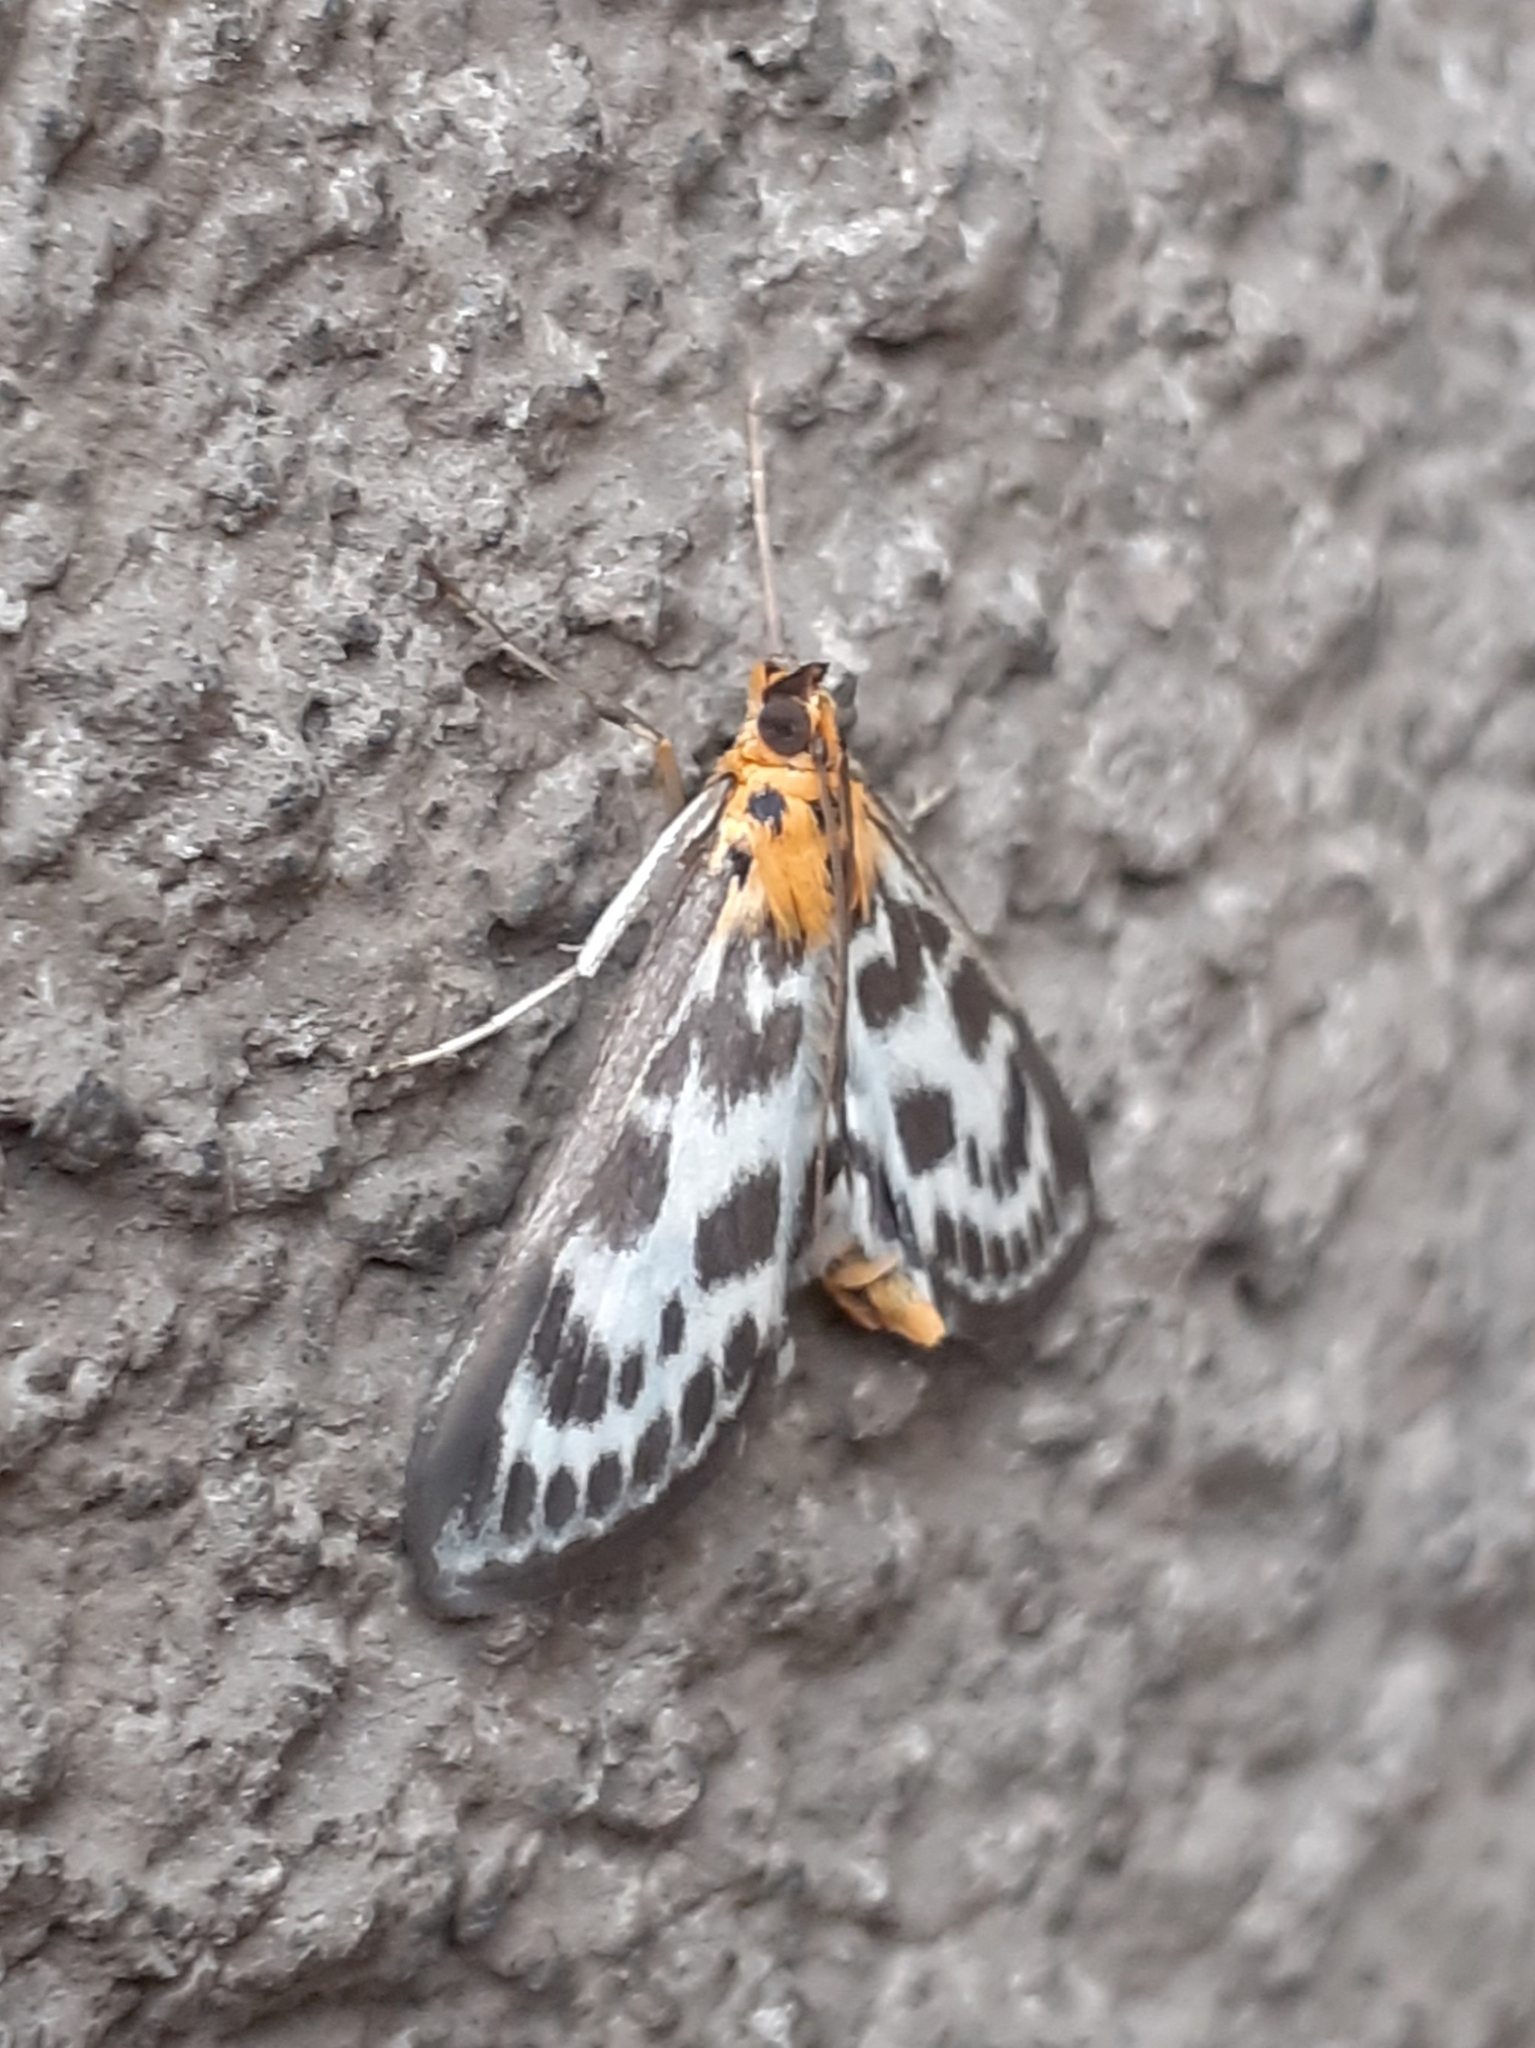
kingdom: Animalia
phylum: Arthropoda
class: Insecta
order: Lepidoptera
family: Crambidae
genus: Anania
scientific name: Anania hortulata
